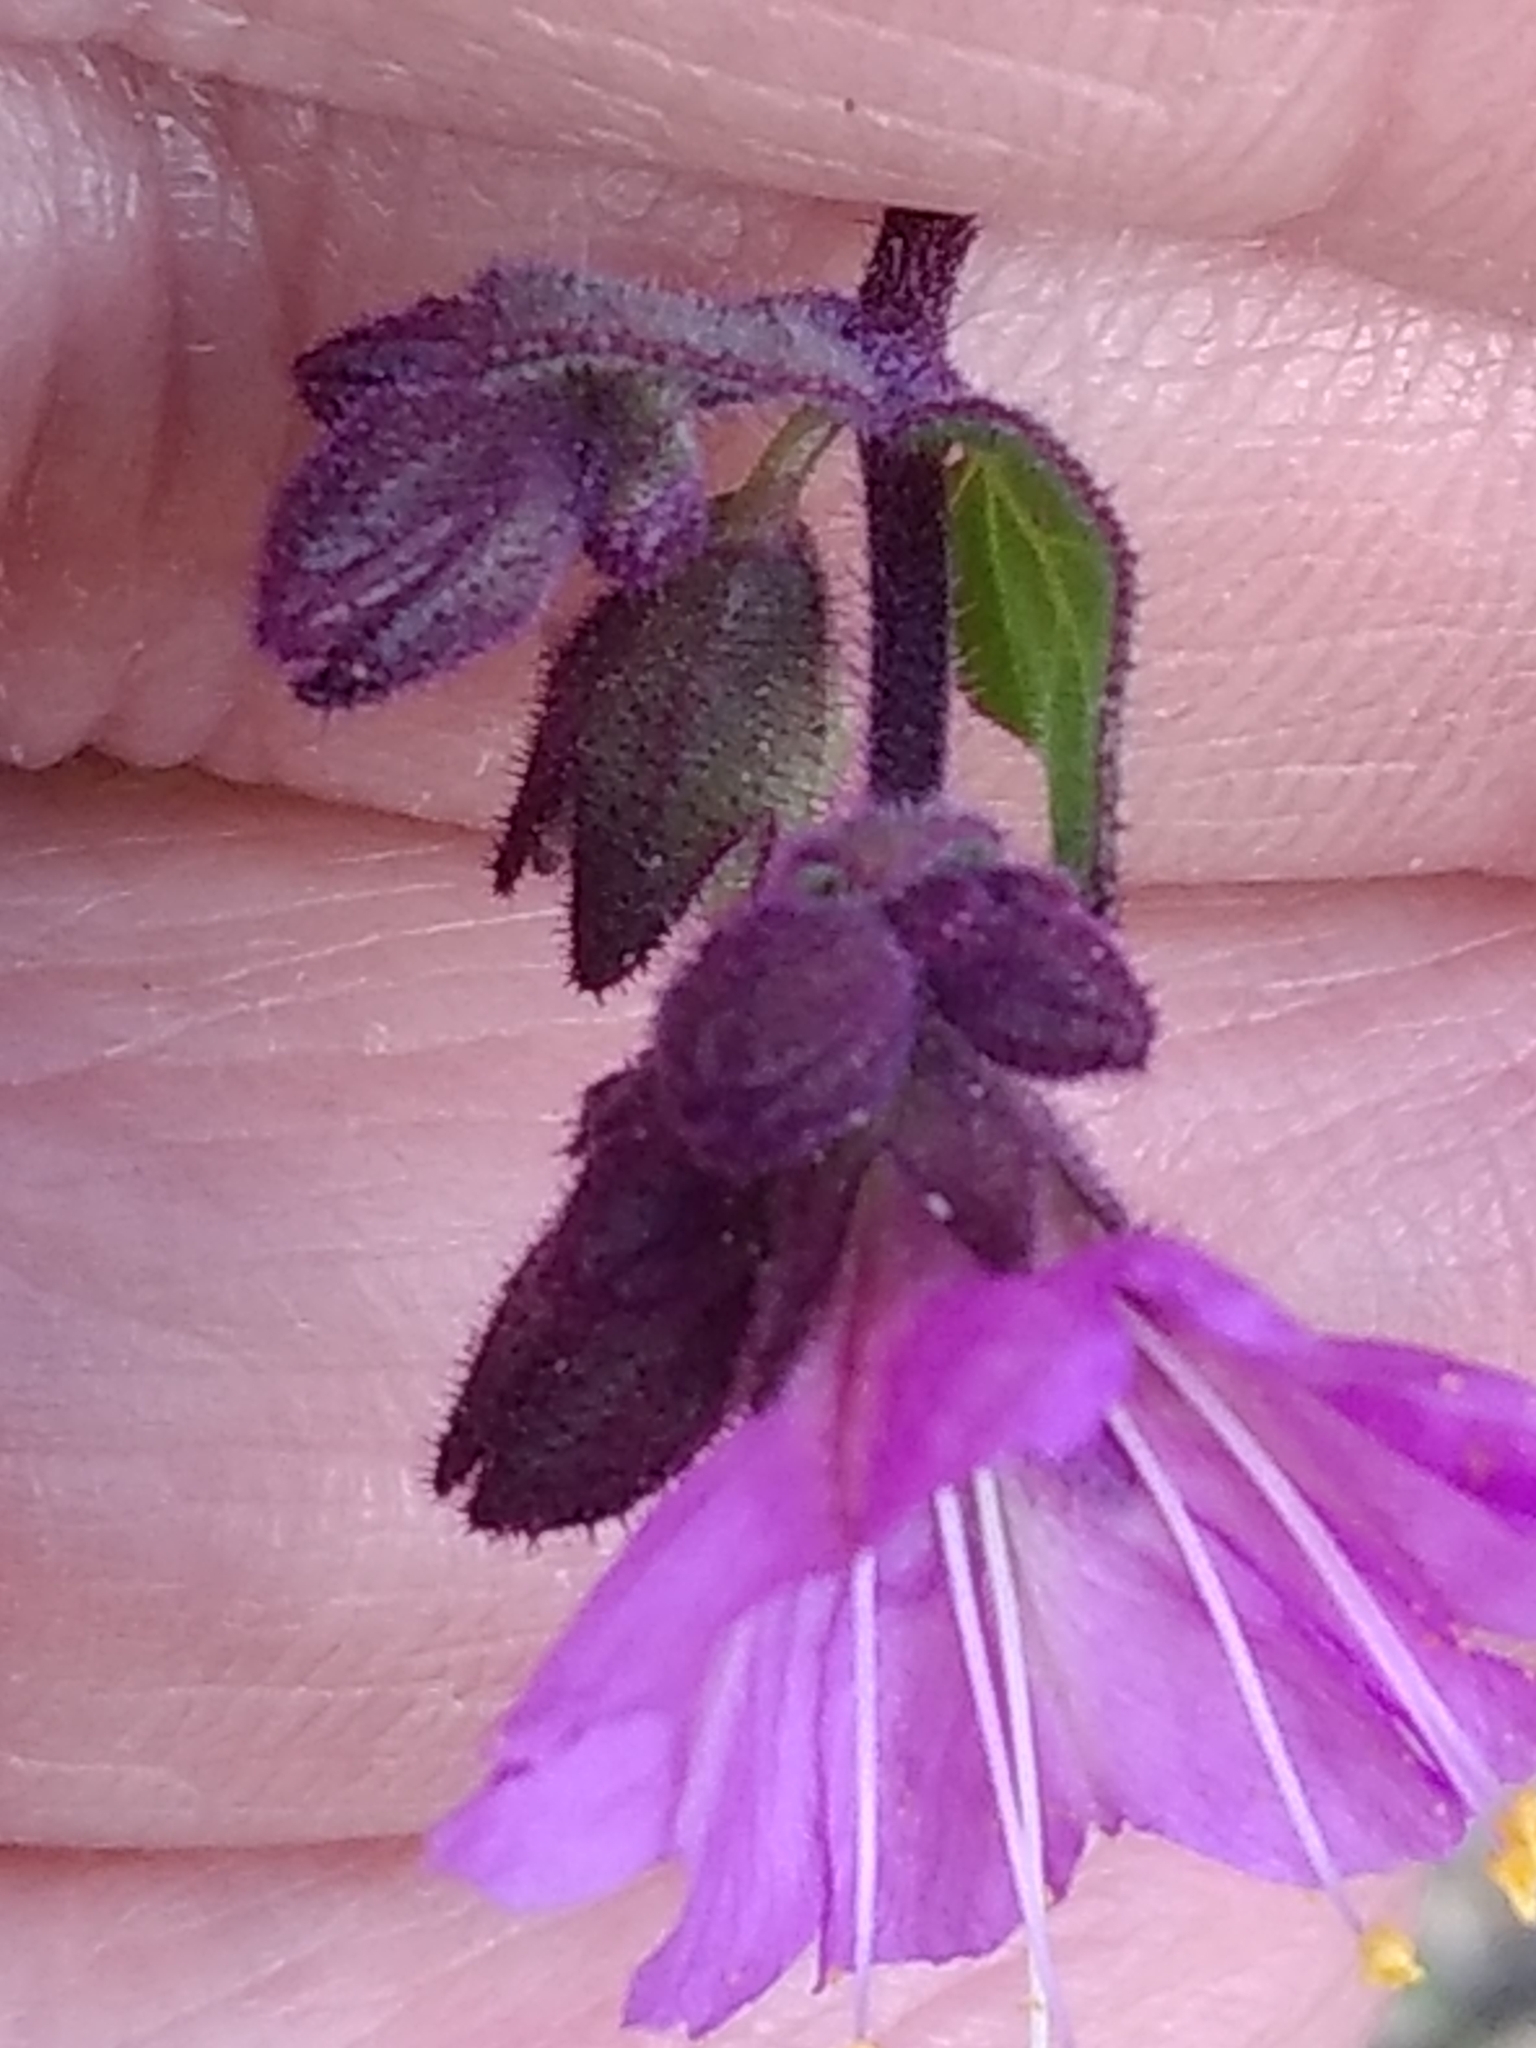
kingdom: Plantae
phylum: Tracheophyta
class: Magnoliopsida
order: Caryophyllales
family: Nyctaginaceae
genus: Mirabilis
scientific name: Mirabilis laevis
